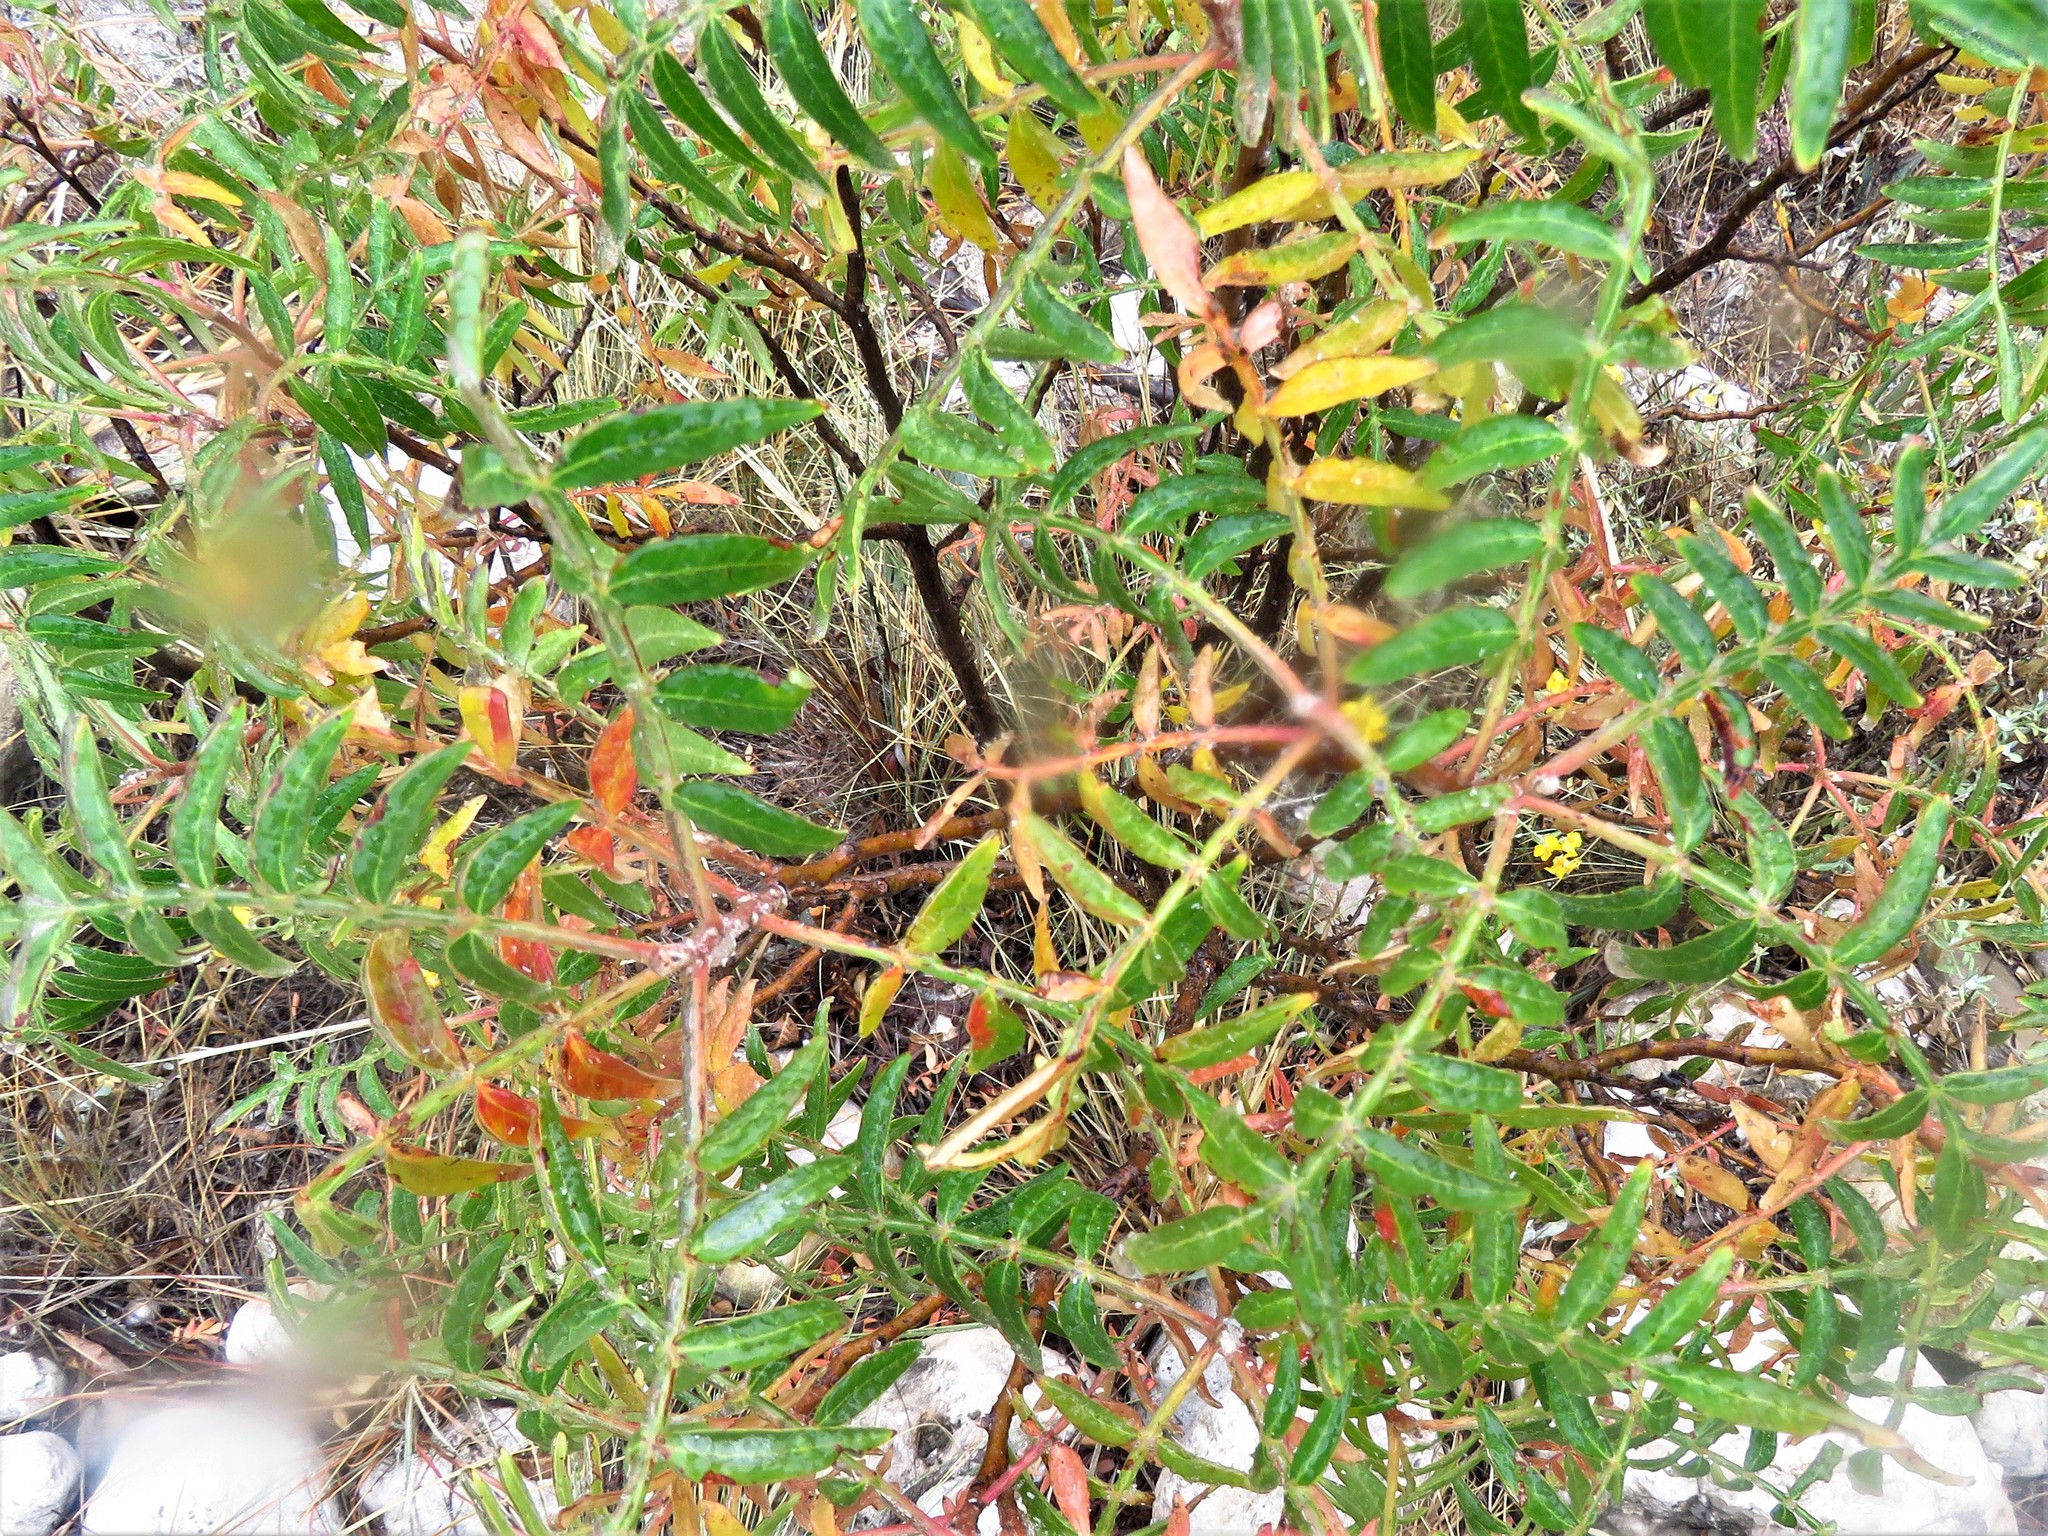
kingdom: Plantae
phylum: Tracheophyta
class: Magnoliopsida
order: Sapindales
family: Anacardiaceae
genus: Rhus
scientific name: Rhus lanceolata
